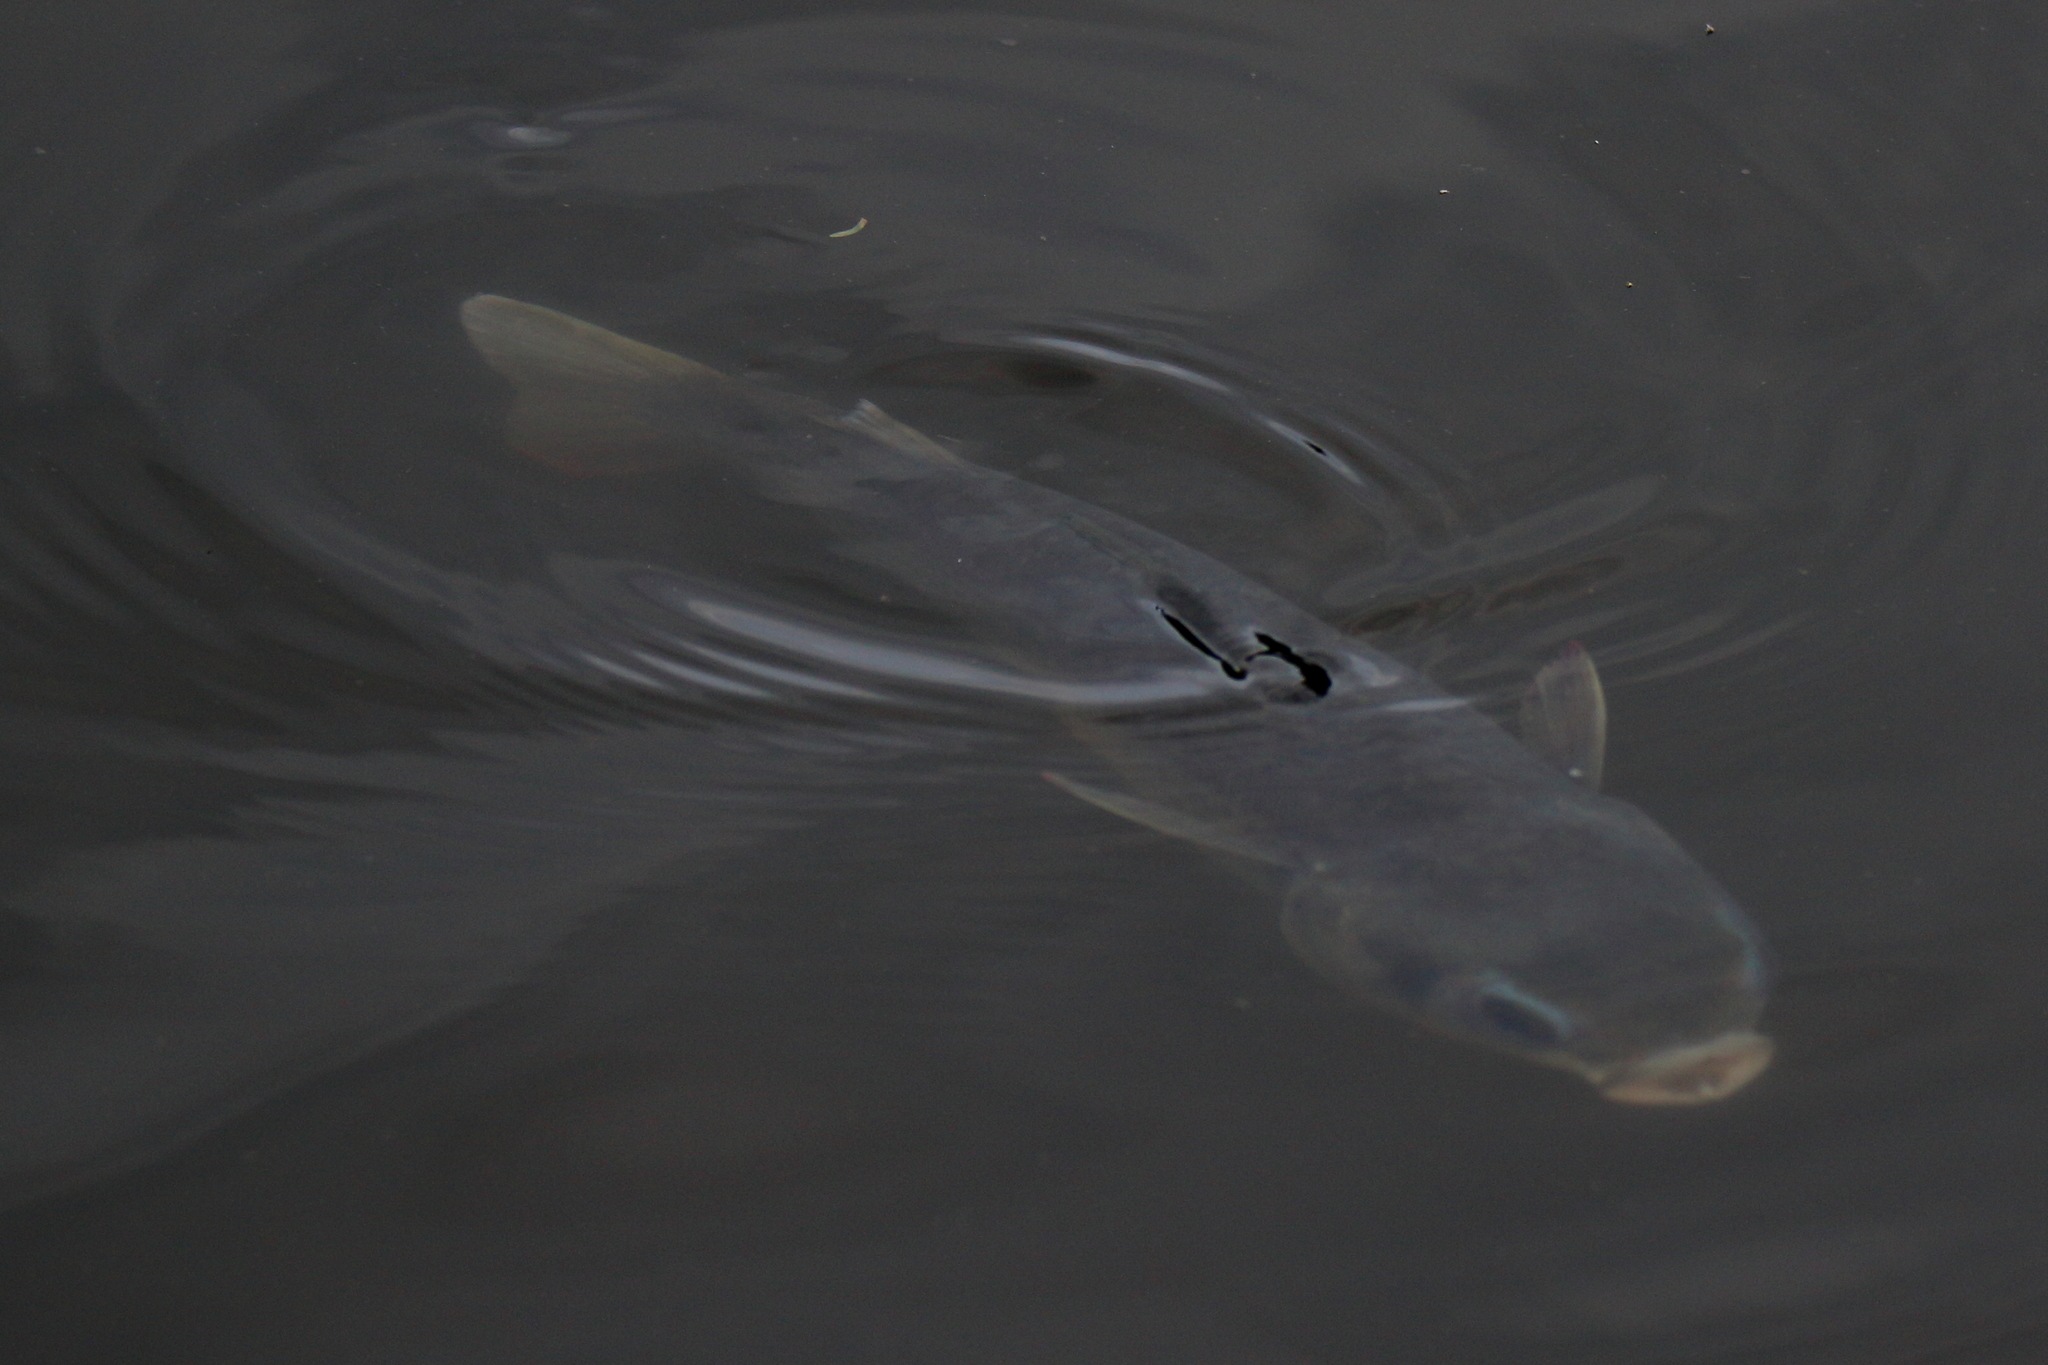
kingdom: Animalia
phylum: Chordata
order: Mugiliformes
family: Mugilidae
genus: Mugil
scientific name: Mugil cephalus
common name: Grey mullet
